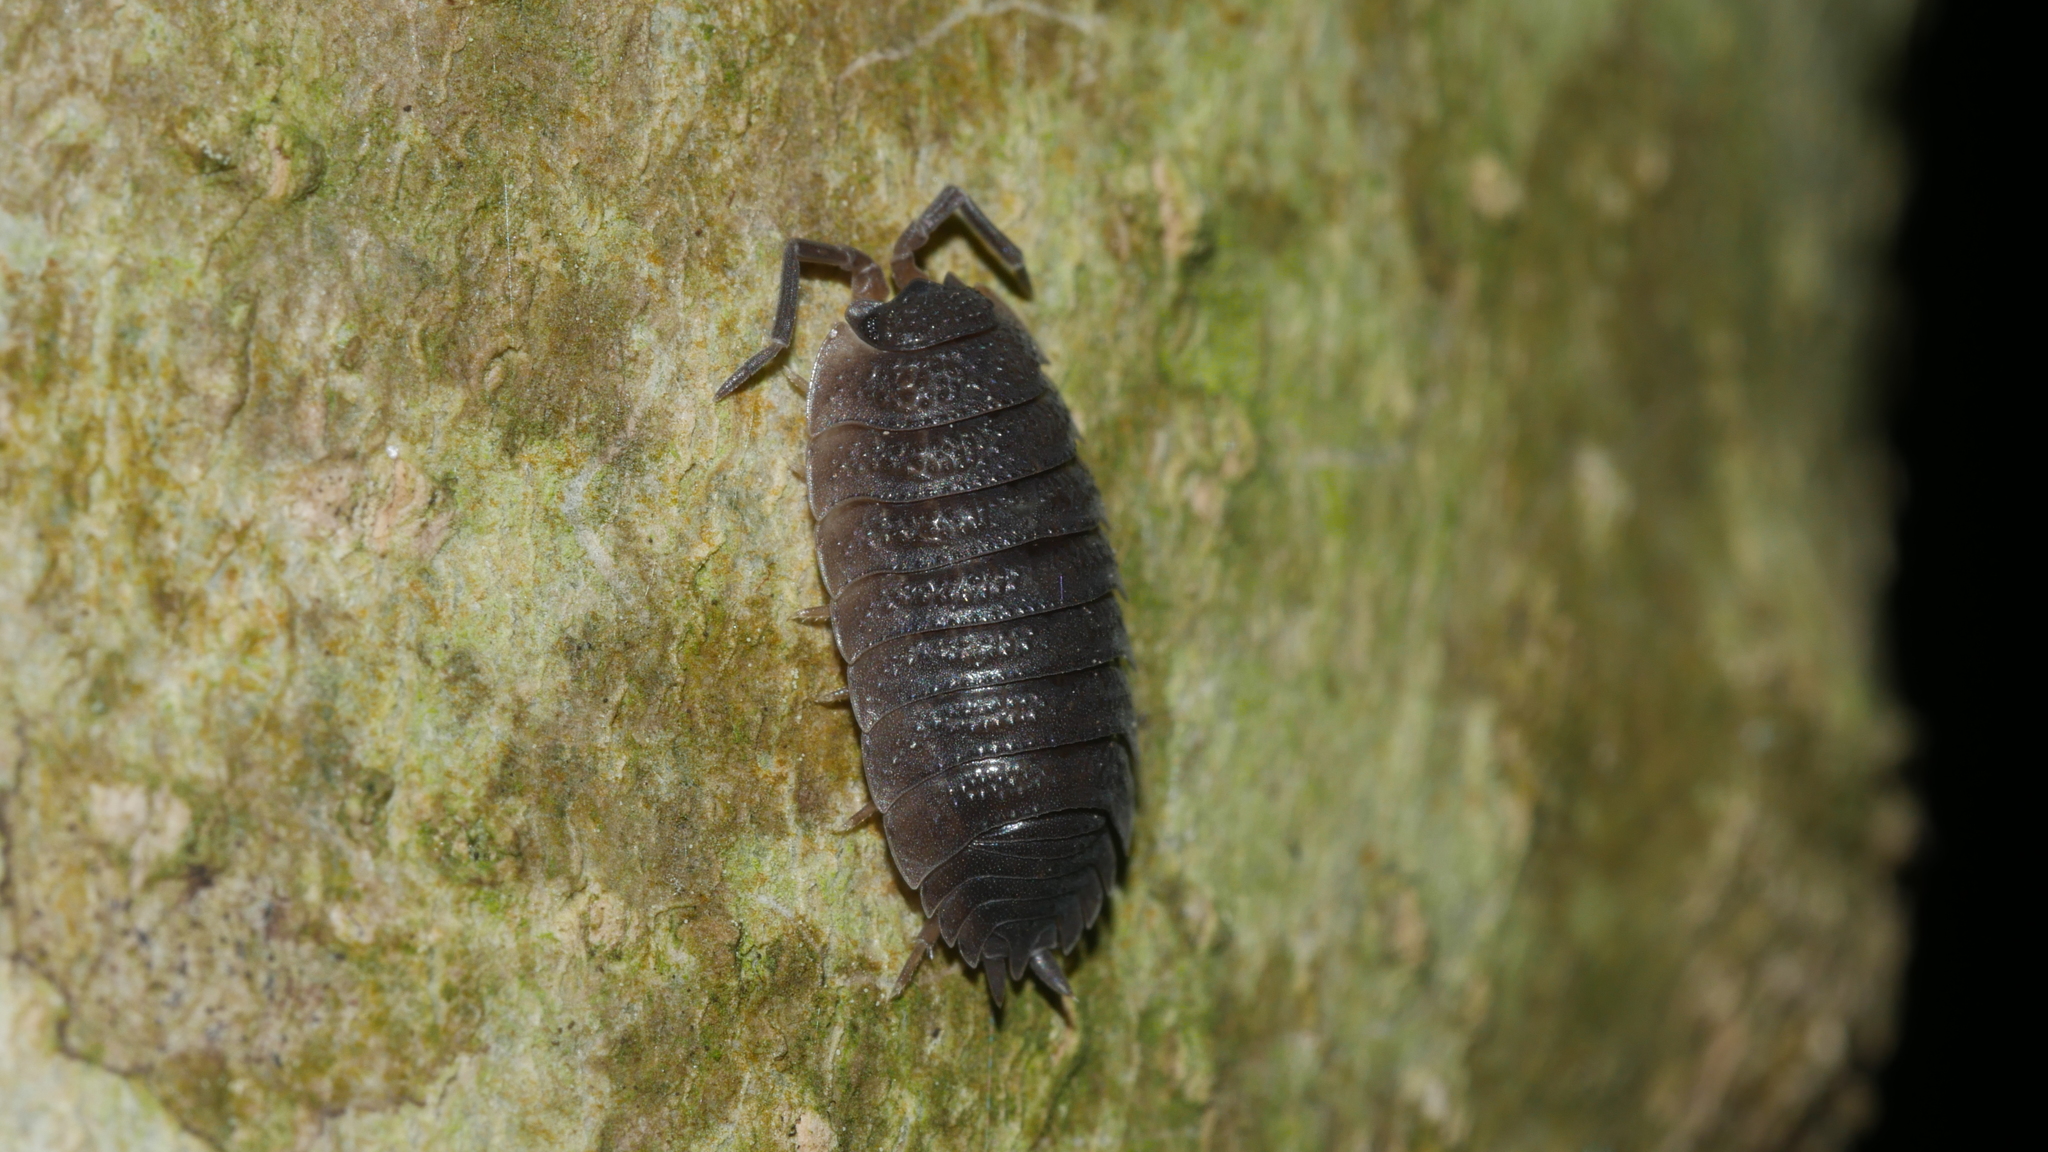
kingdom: Animalia
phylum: Arthropoda
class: Malacostraca
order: Isopoda
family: Porcellionidae
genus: Porcellio
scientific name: Porcellio scaber
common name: Common rough woodlouse
